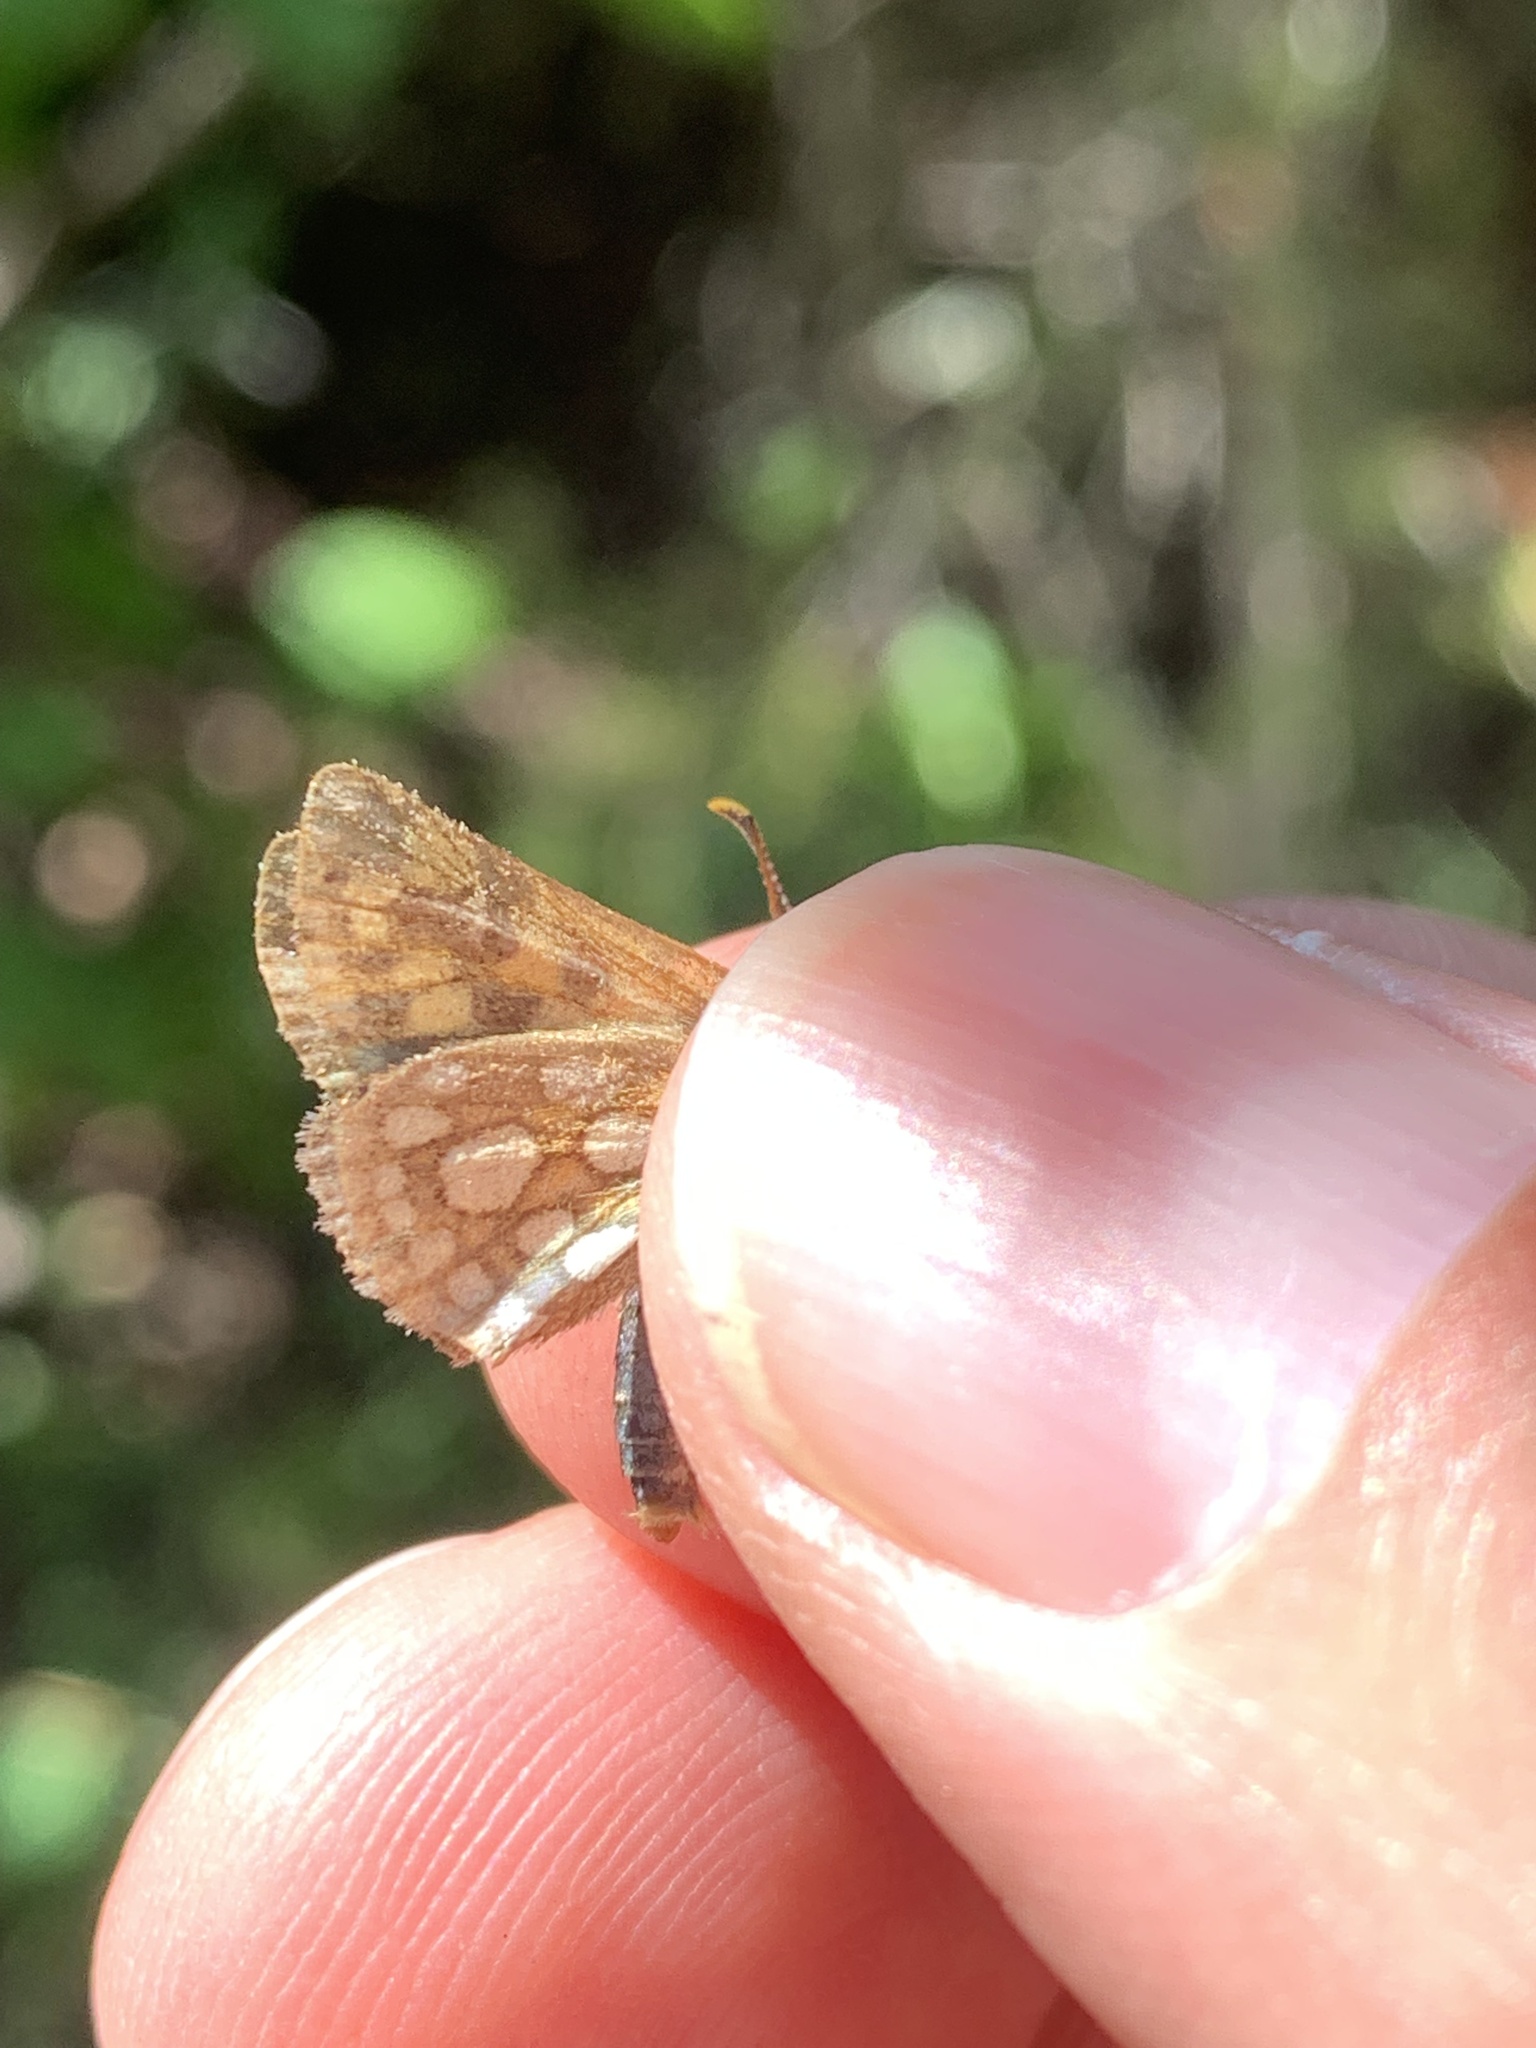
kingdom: Animalia
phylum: Arthropoda
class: Insecta
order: Lepidoptera
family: Hesperiidae
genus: Carterocephalus
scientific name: Carterocephalus mandan
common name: Arctic skipperling
